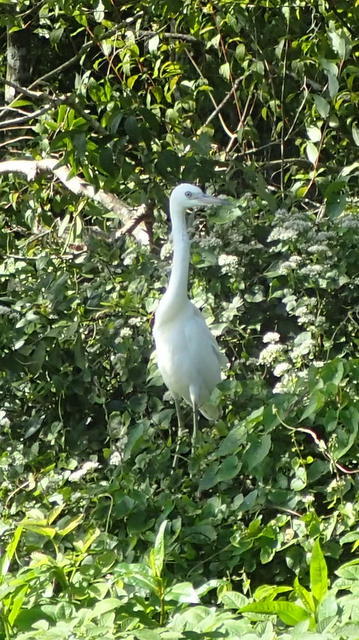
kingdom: Animalia
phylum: Chordata
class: Aves
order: Pelecaniformes
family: Ardeidae
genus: Egretta
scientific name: Egretta caerulea
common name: Little blue heron
